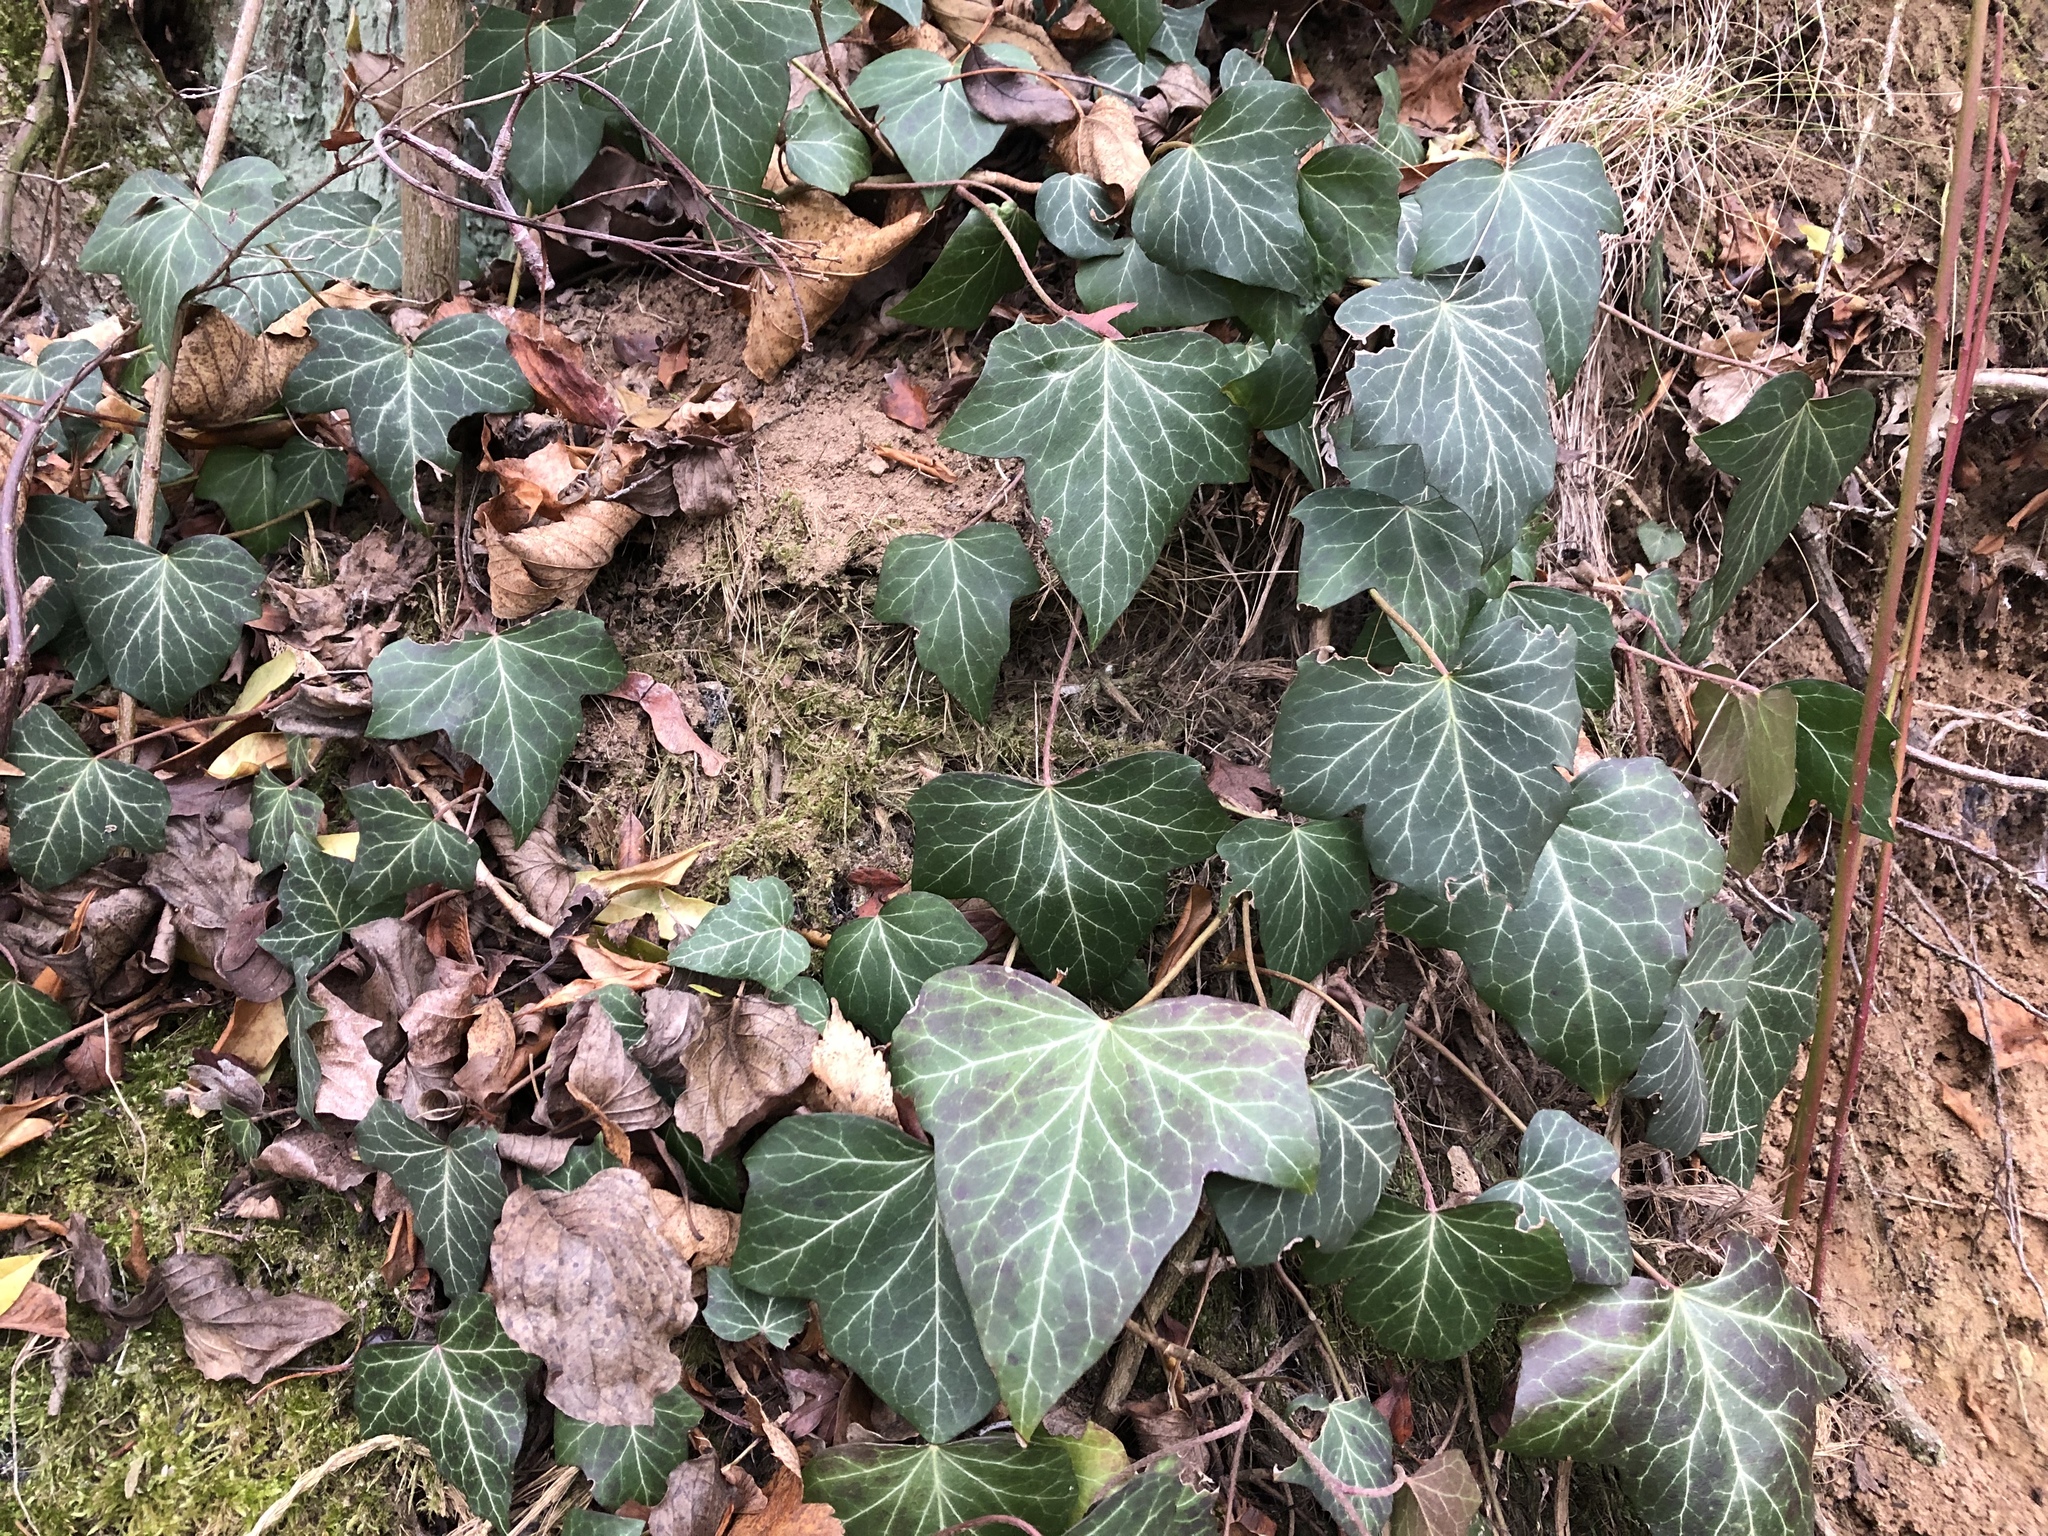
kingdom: Plantae
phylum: Tracheophyta
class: Magnoliopsida
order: Apiales
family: Araliaceae
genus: Hedera
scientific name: Hedera helix
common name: Ivy
